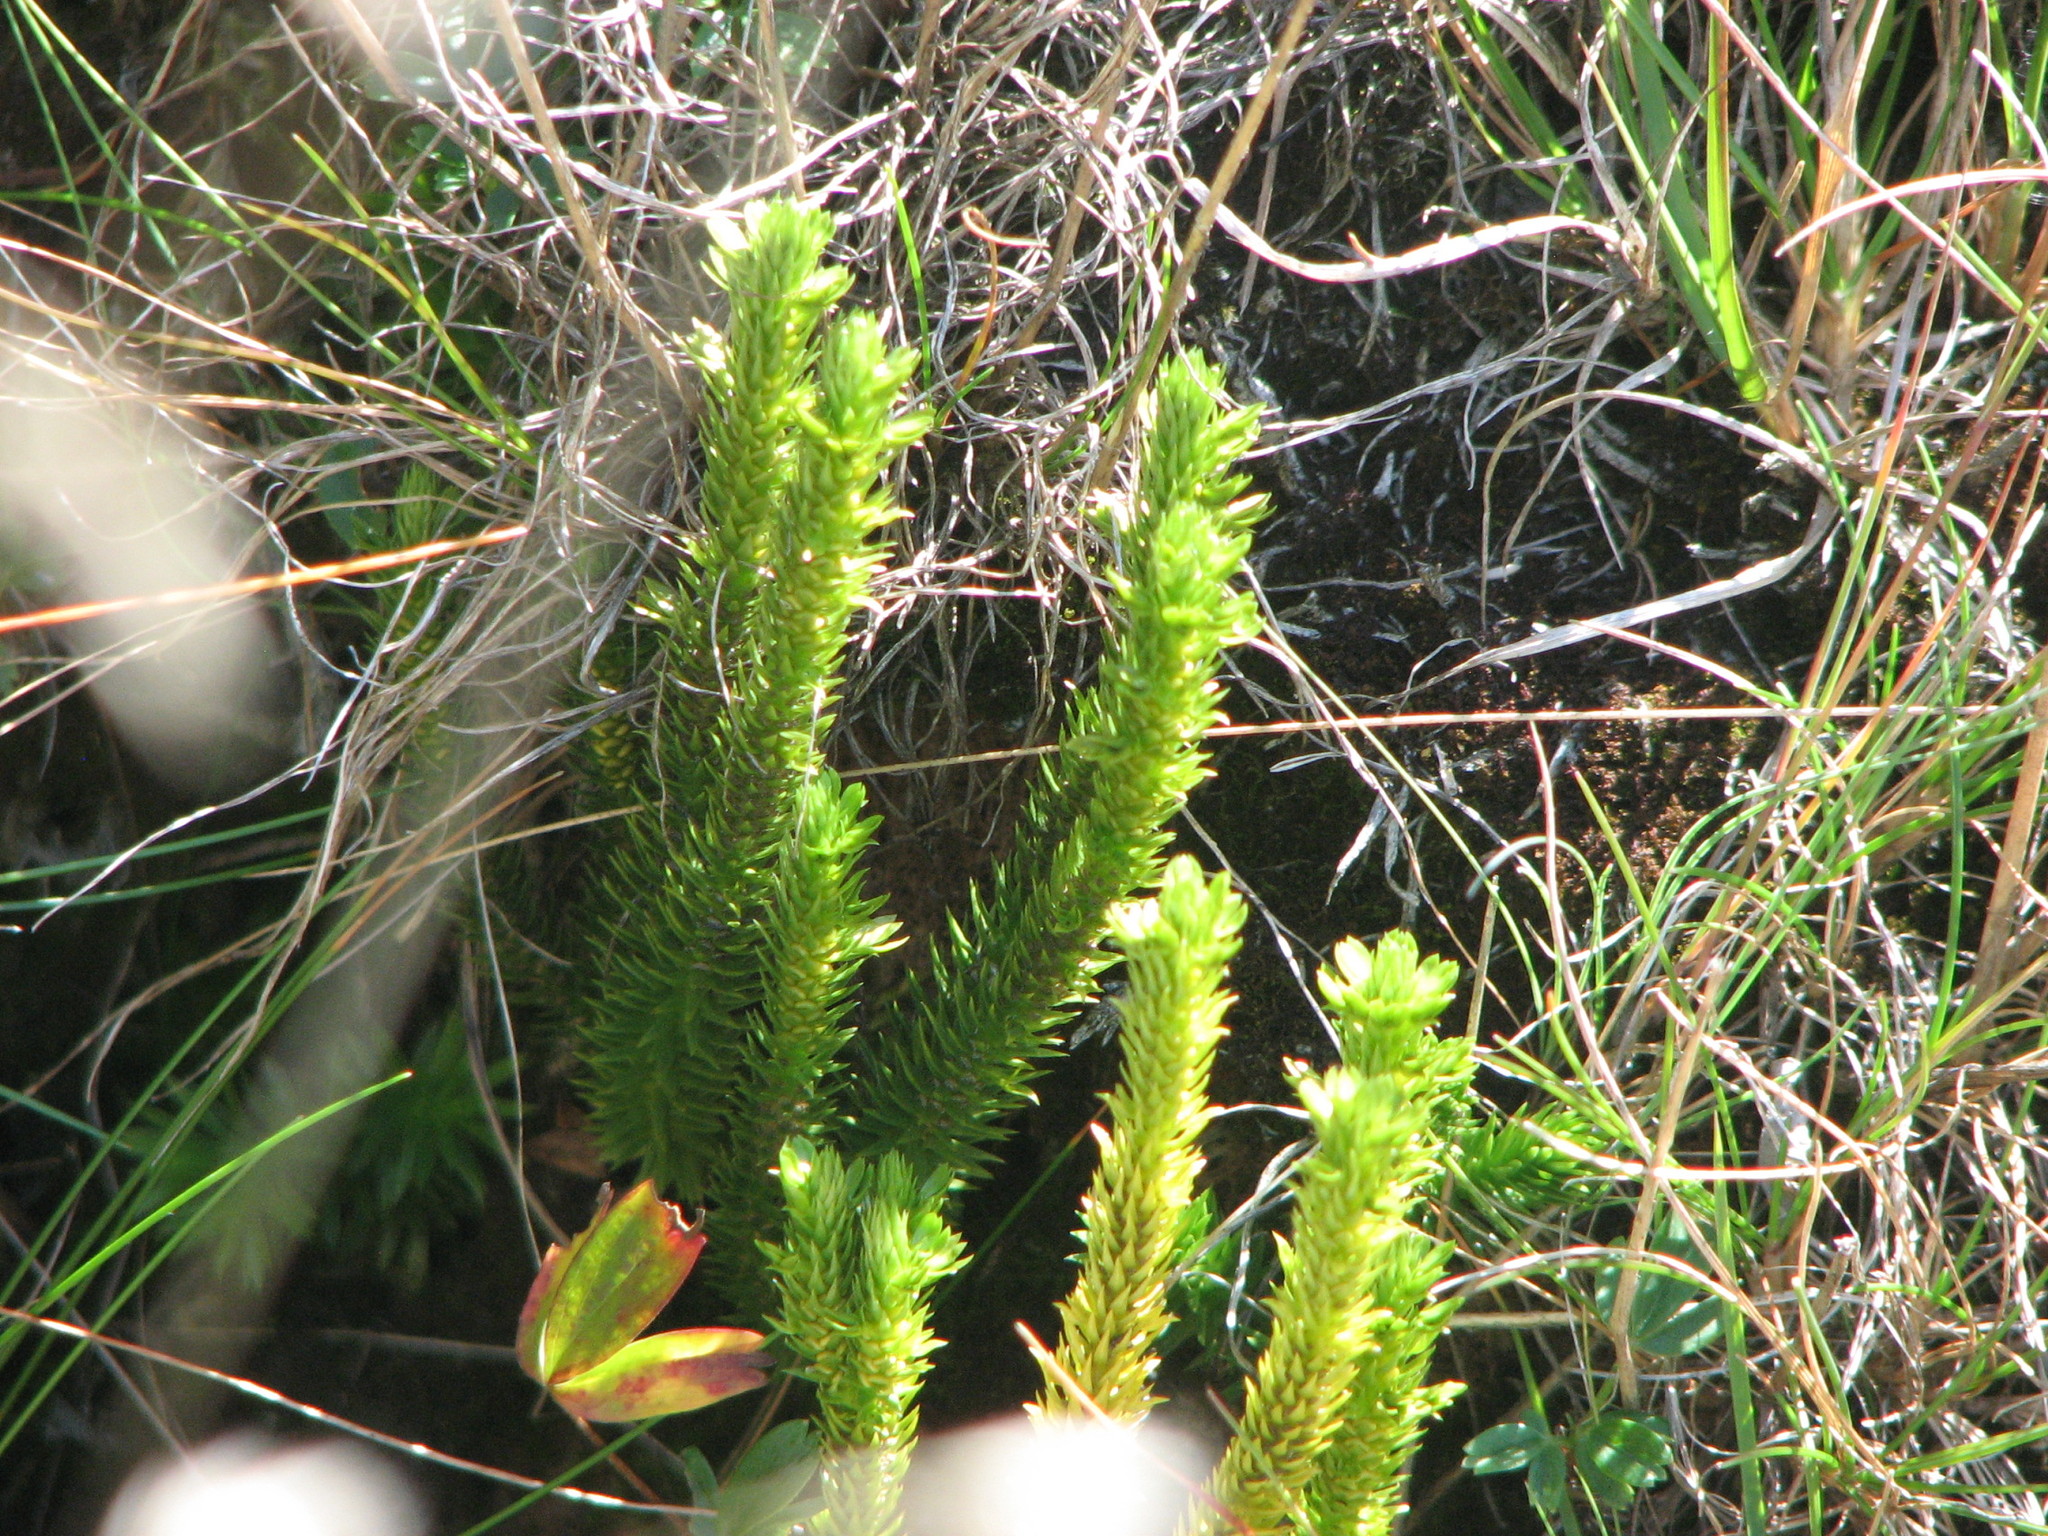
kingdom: Plantae
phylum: Tracheophyta
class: Lycopodiopsida
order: Lycopodiales
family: Lycopodiaceae
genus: Huperzia
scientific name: Huperzia selago
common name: Northern firmoss
